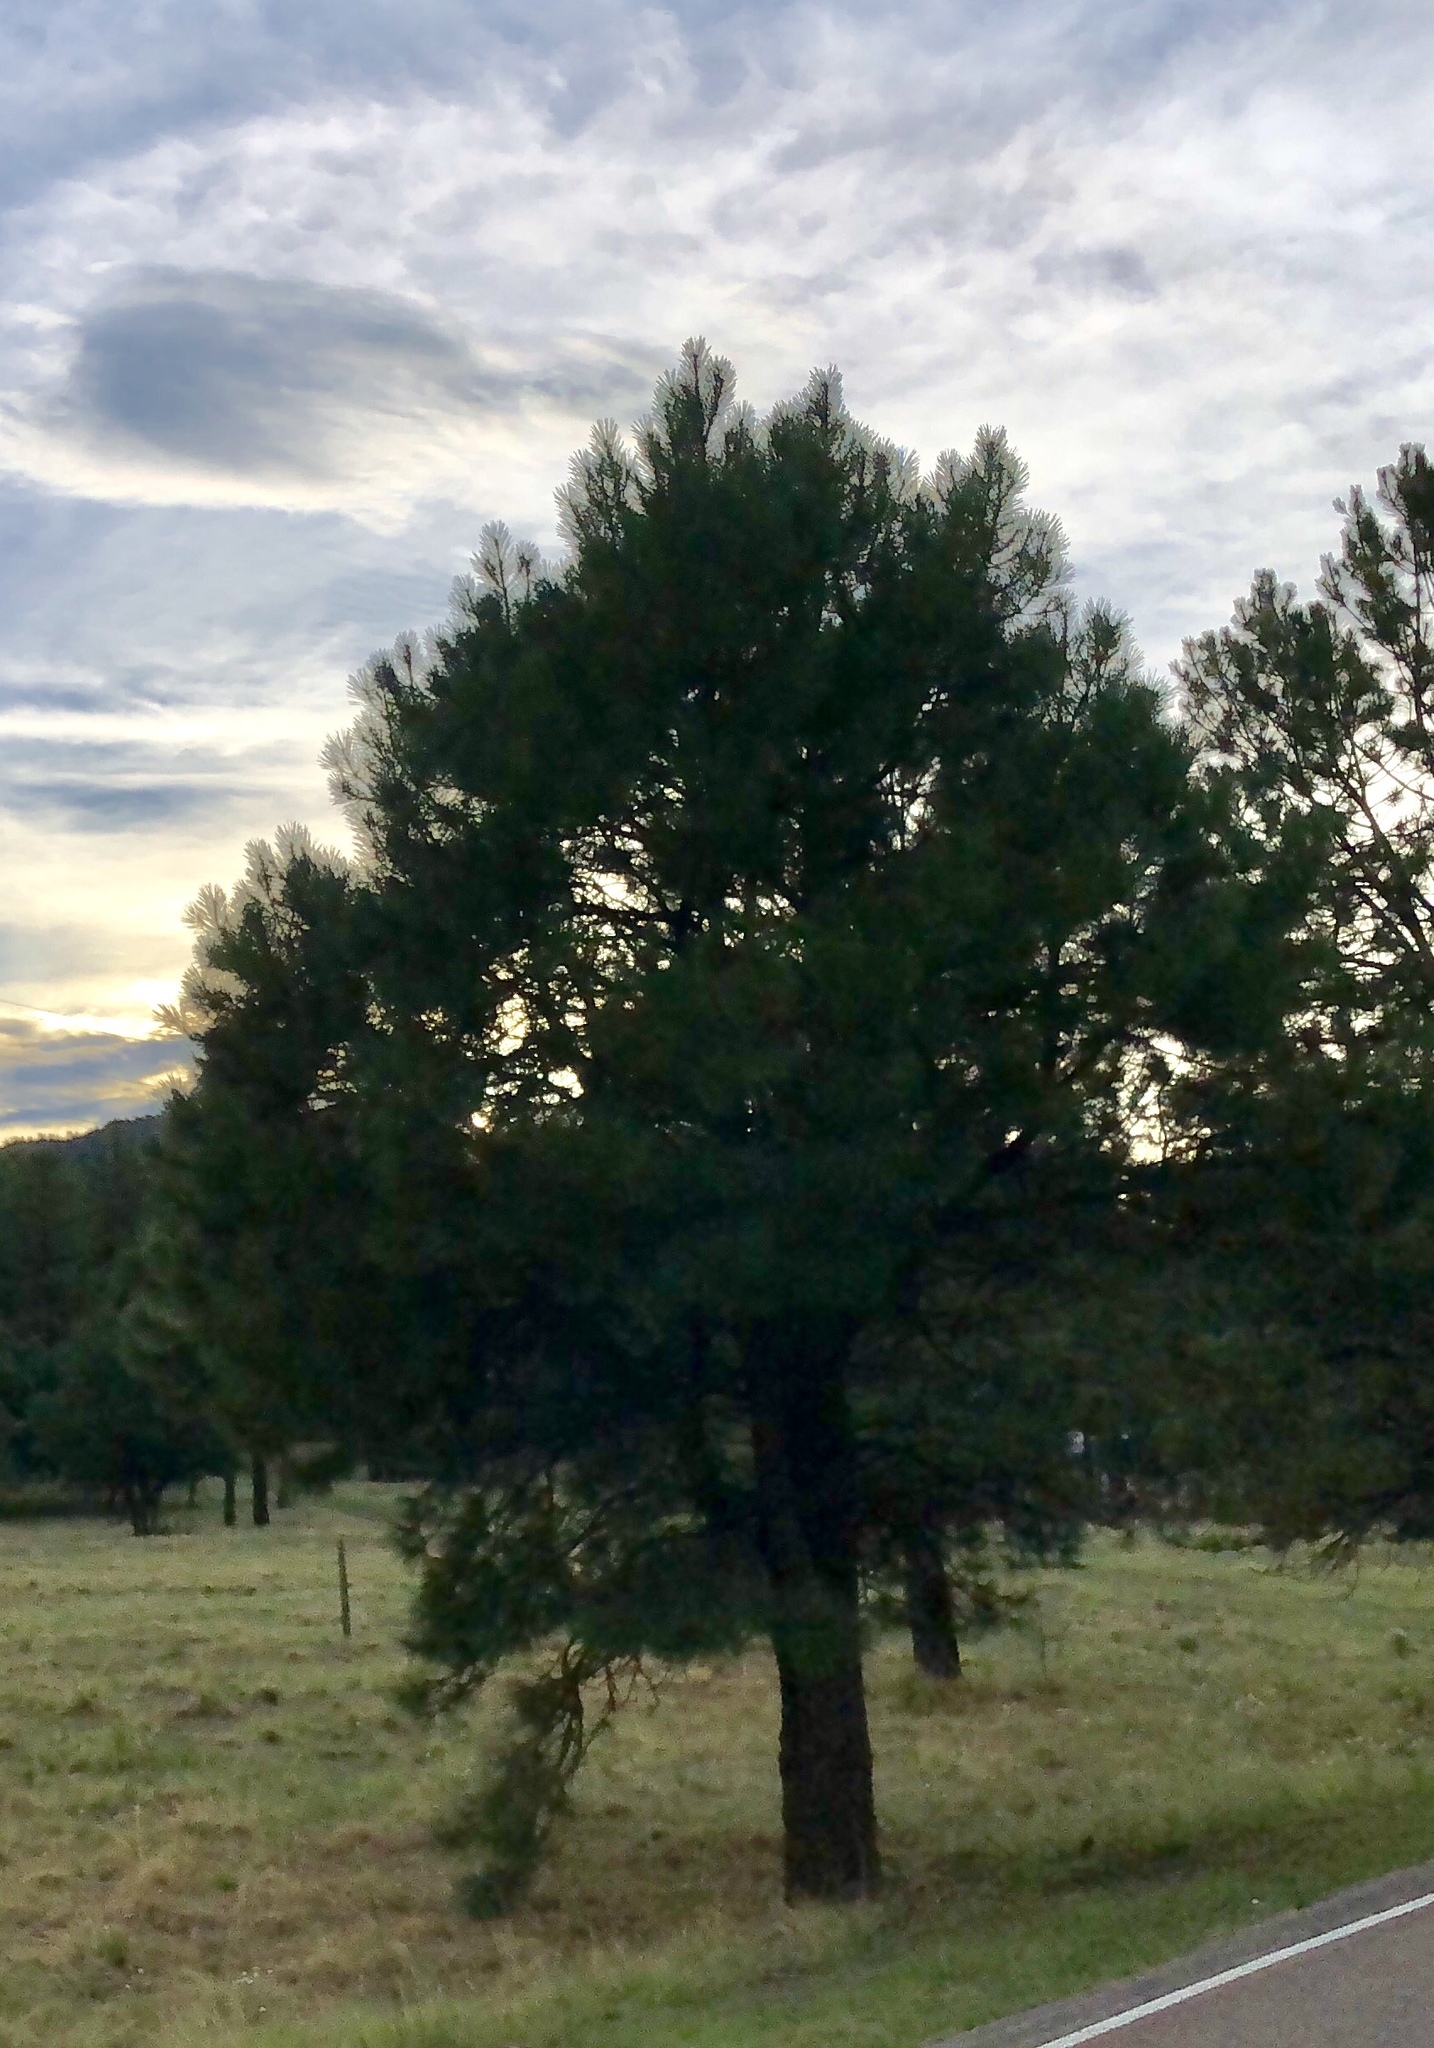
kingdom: Plantae
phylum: Tracheophyta
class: Pinopsida
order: Pinales
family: Pinaceae
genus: Pinus
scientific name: Pinus ponderosa
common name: Western yellow-pine
